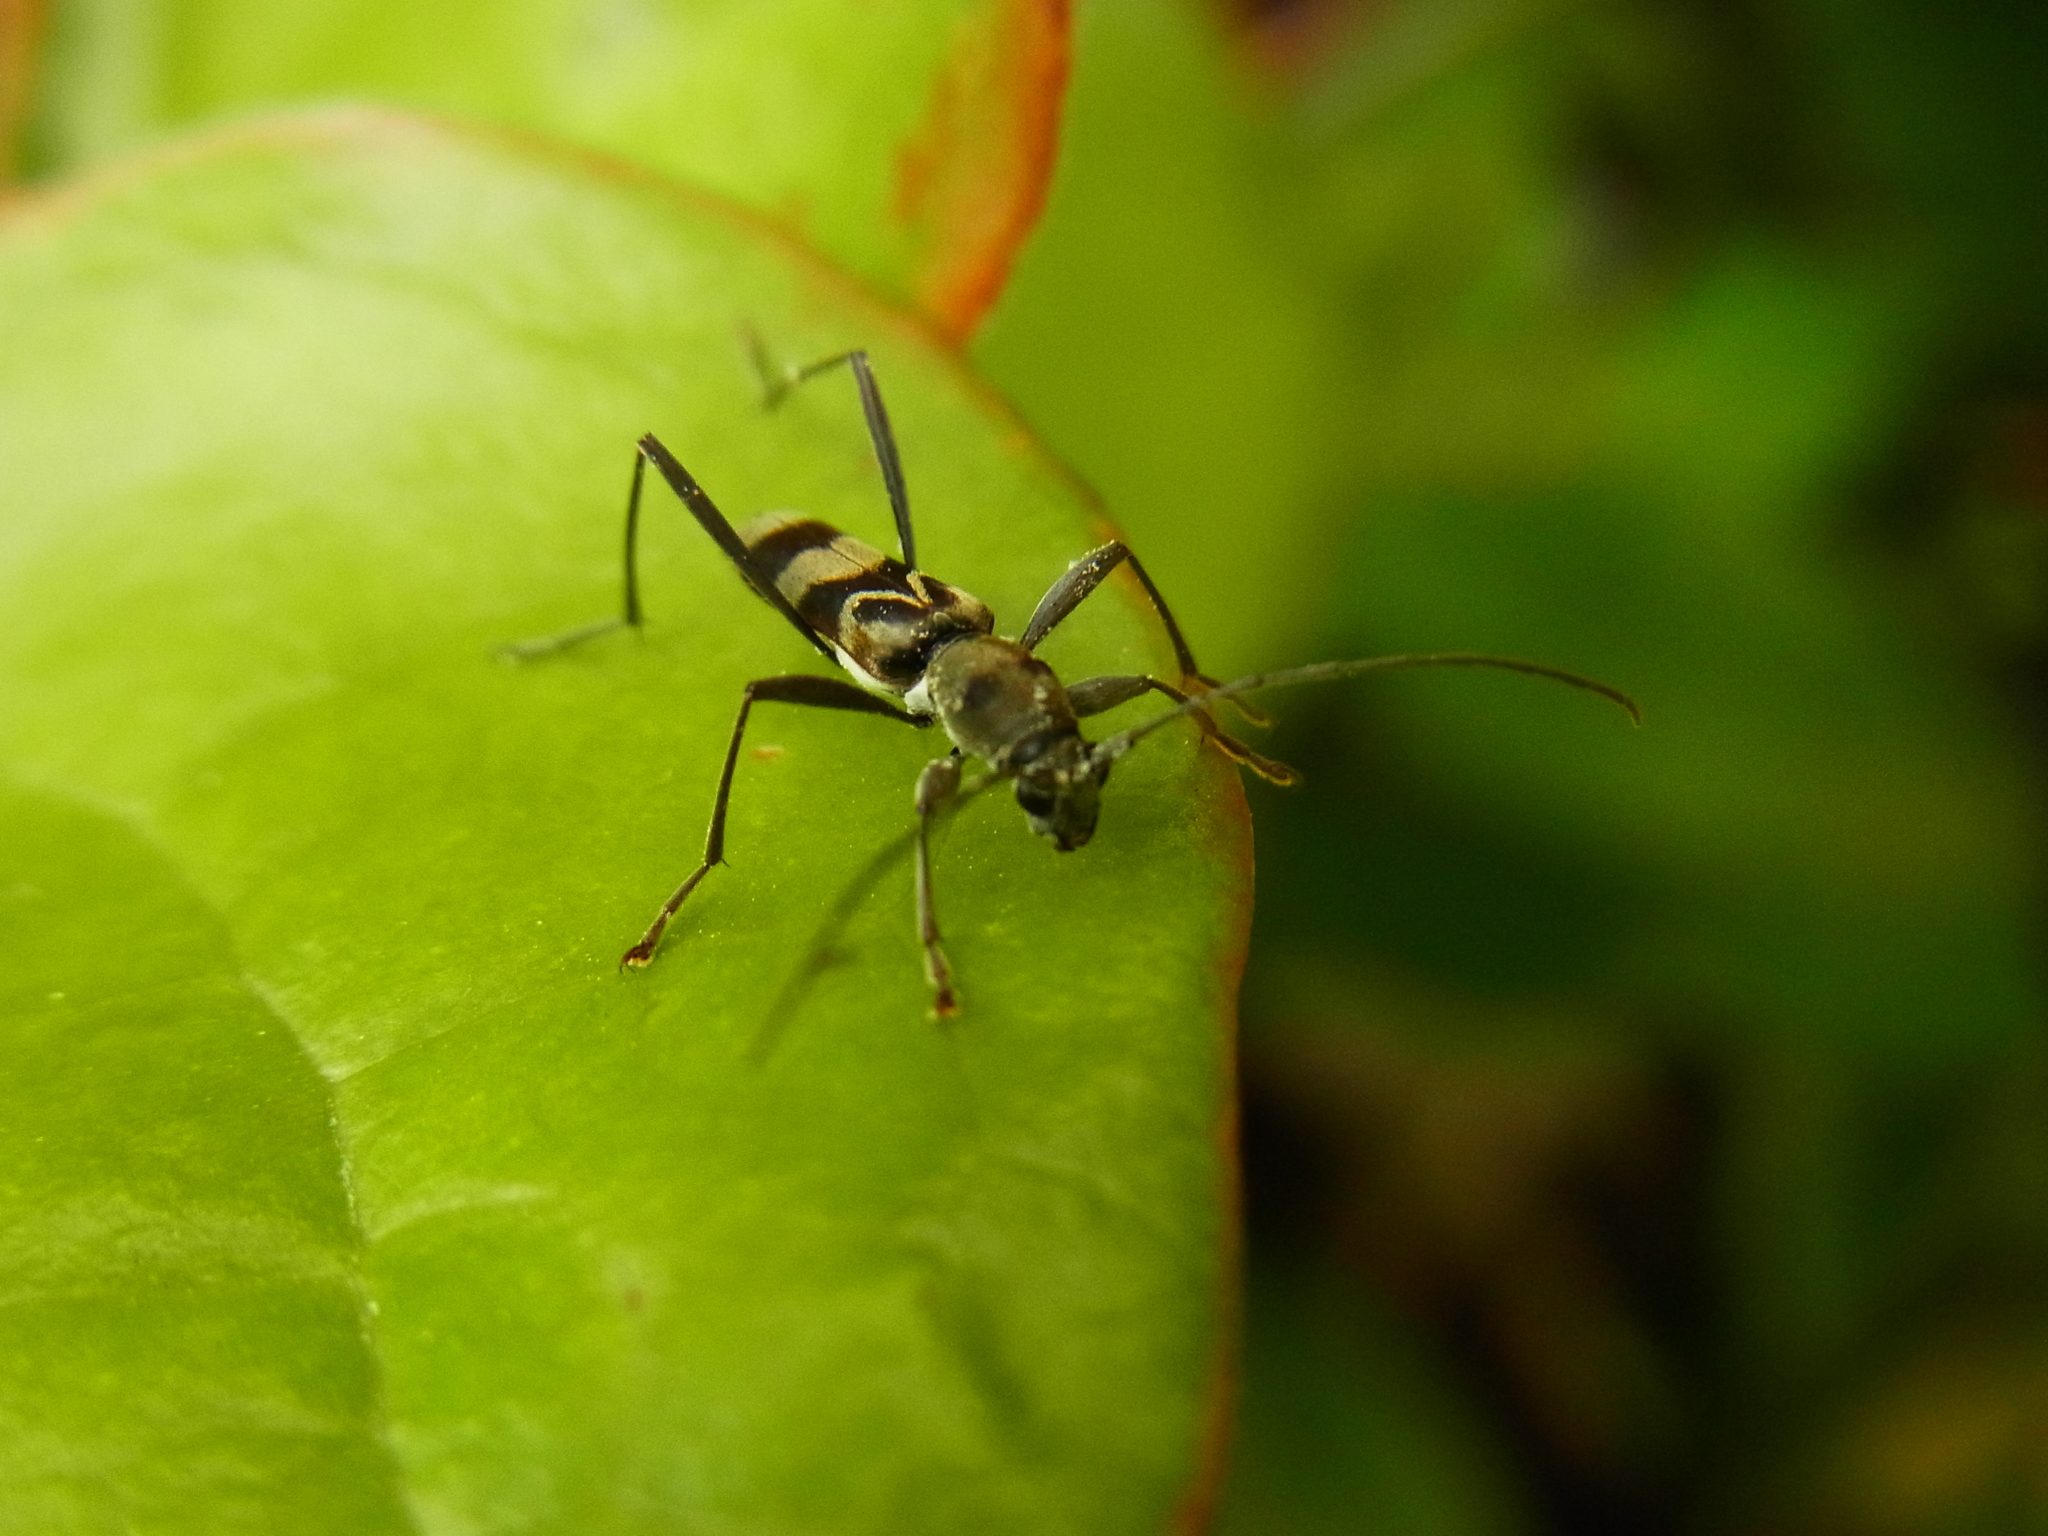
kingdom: Animalia
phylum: Arthropoda
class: Insecta
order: Coleoptera
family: Cerambycidae
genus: Demonax
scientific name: Demonax transilis
